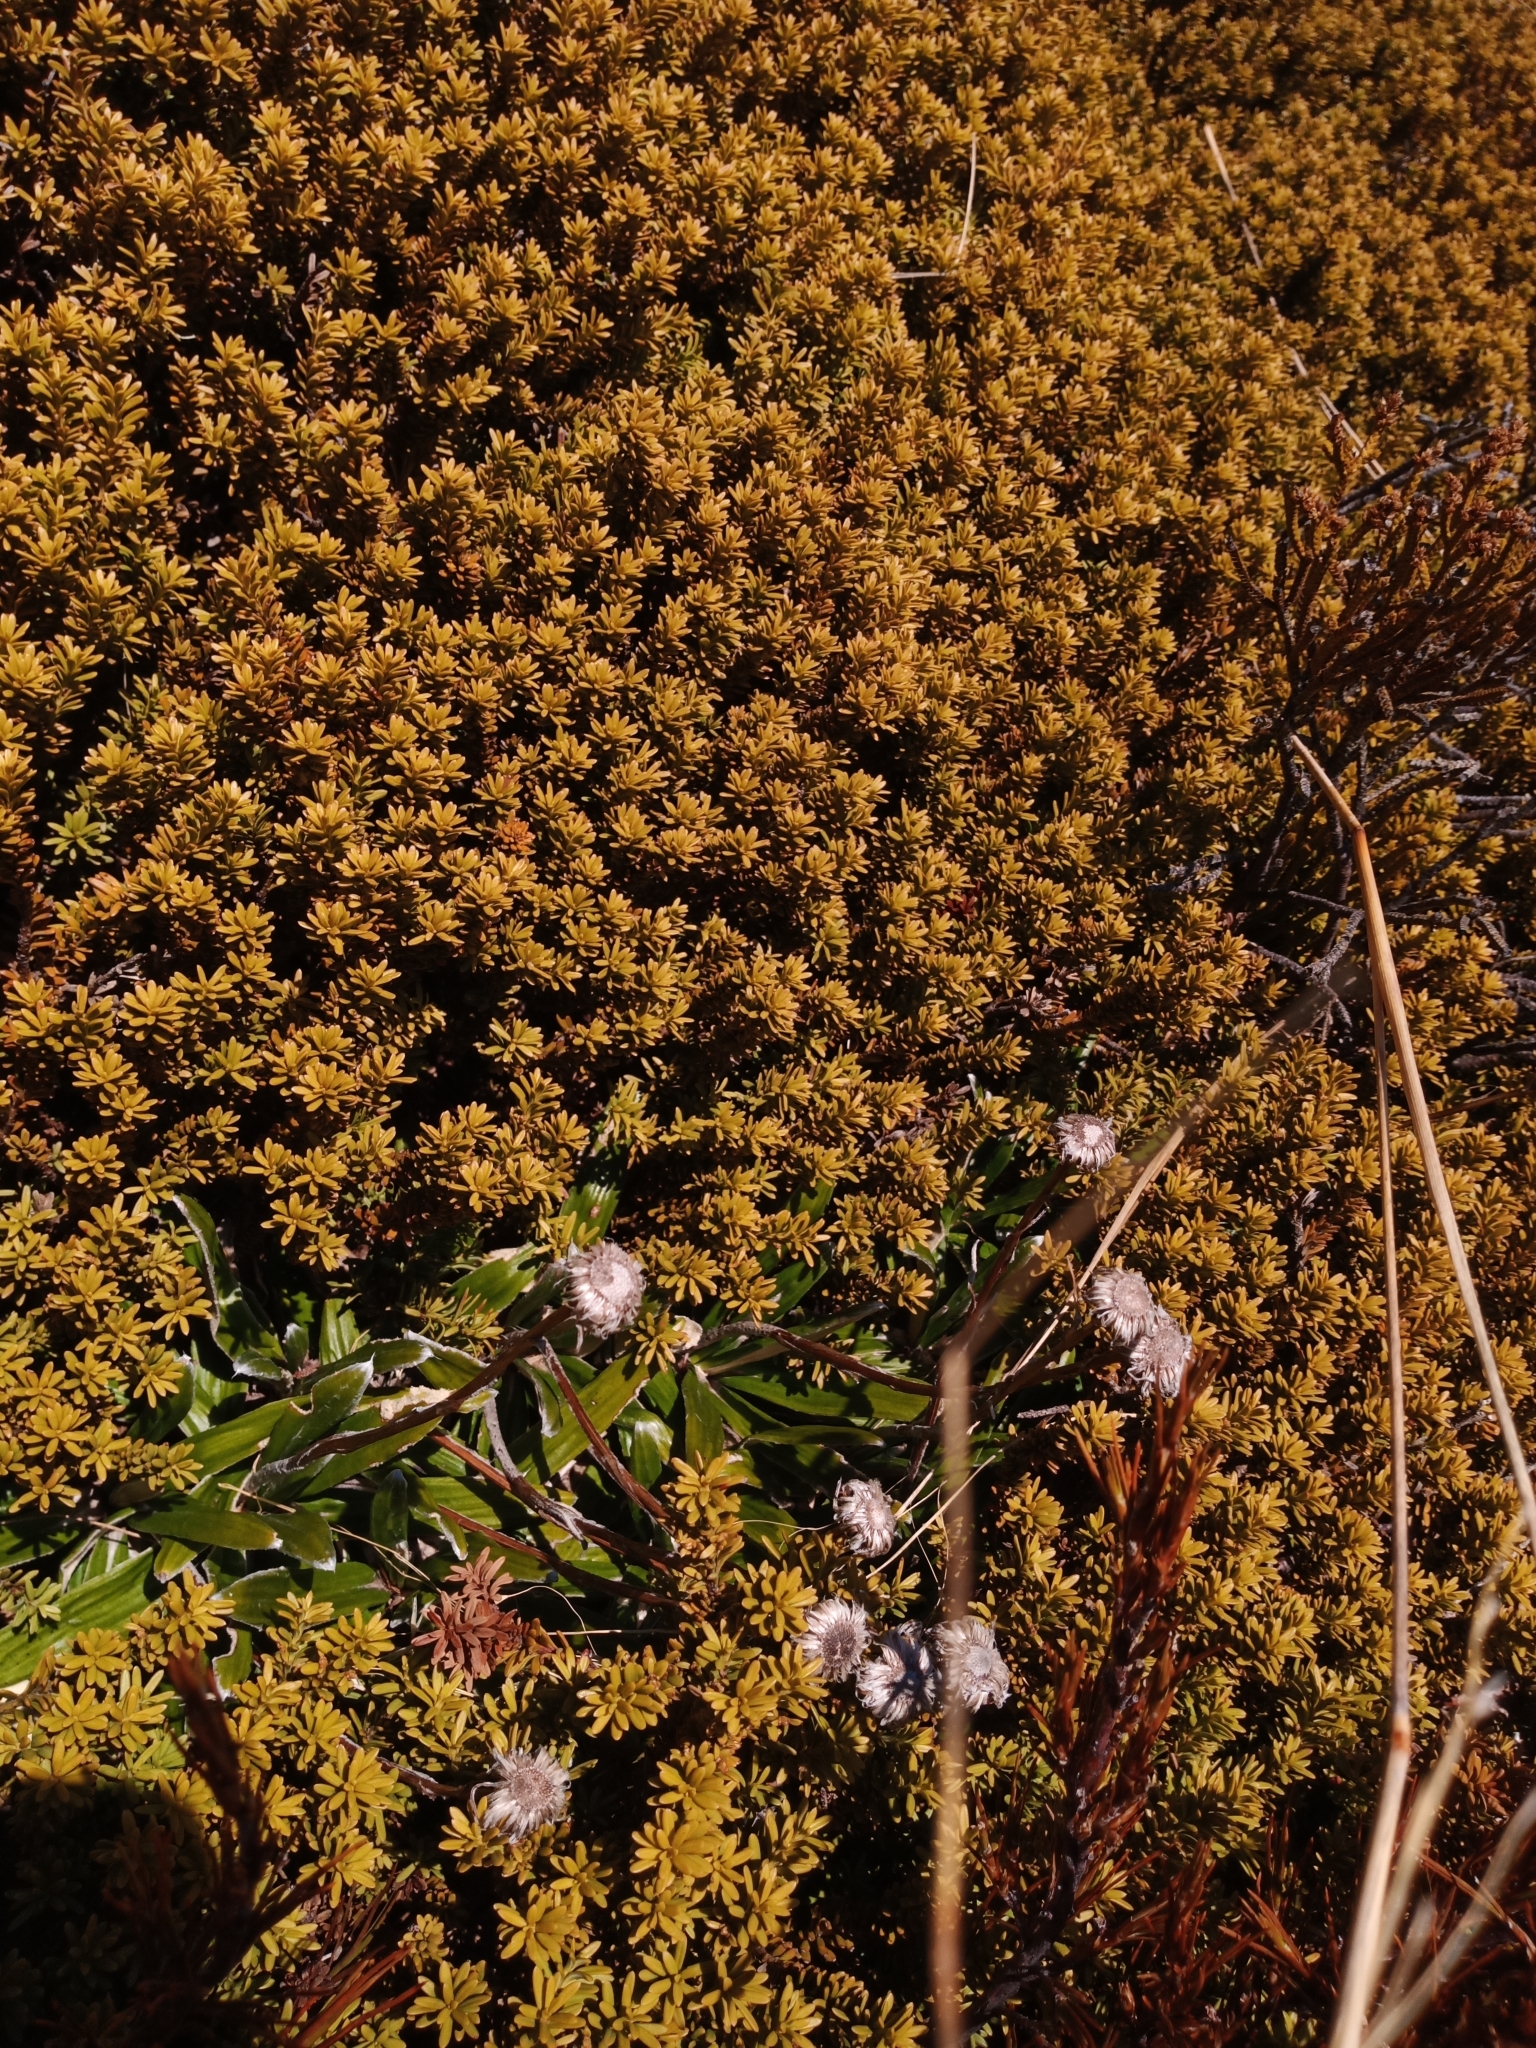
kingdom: Plantae
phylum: Tracheophyta
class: Magnoliopsida
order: Asterales
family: Asteraceae
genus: Celmisia
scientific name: Celmisia spectabilis
